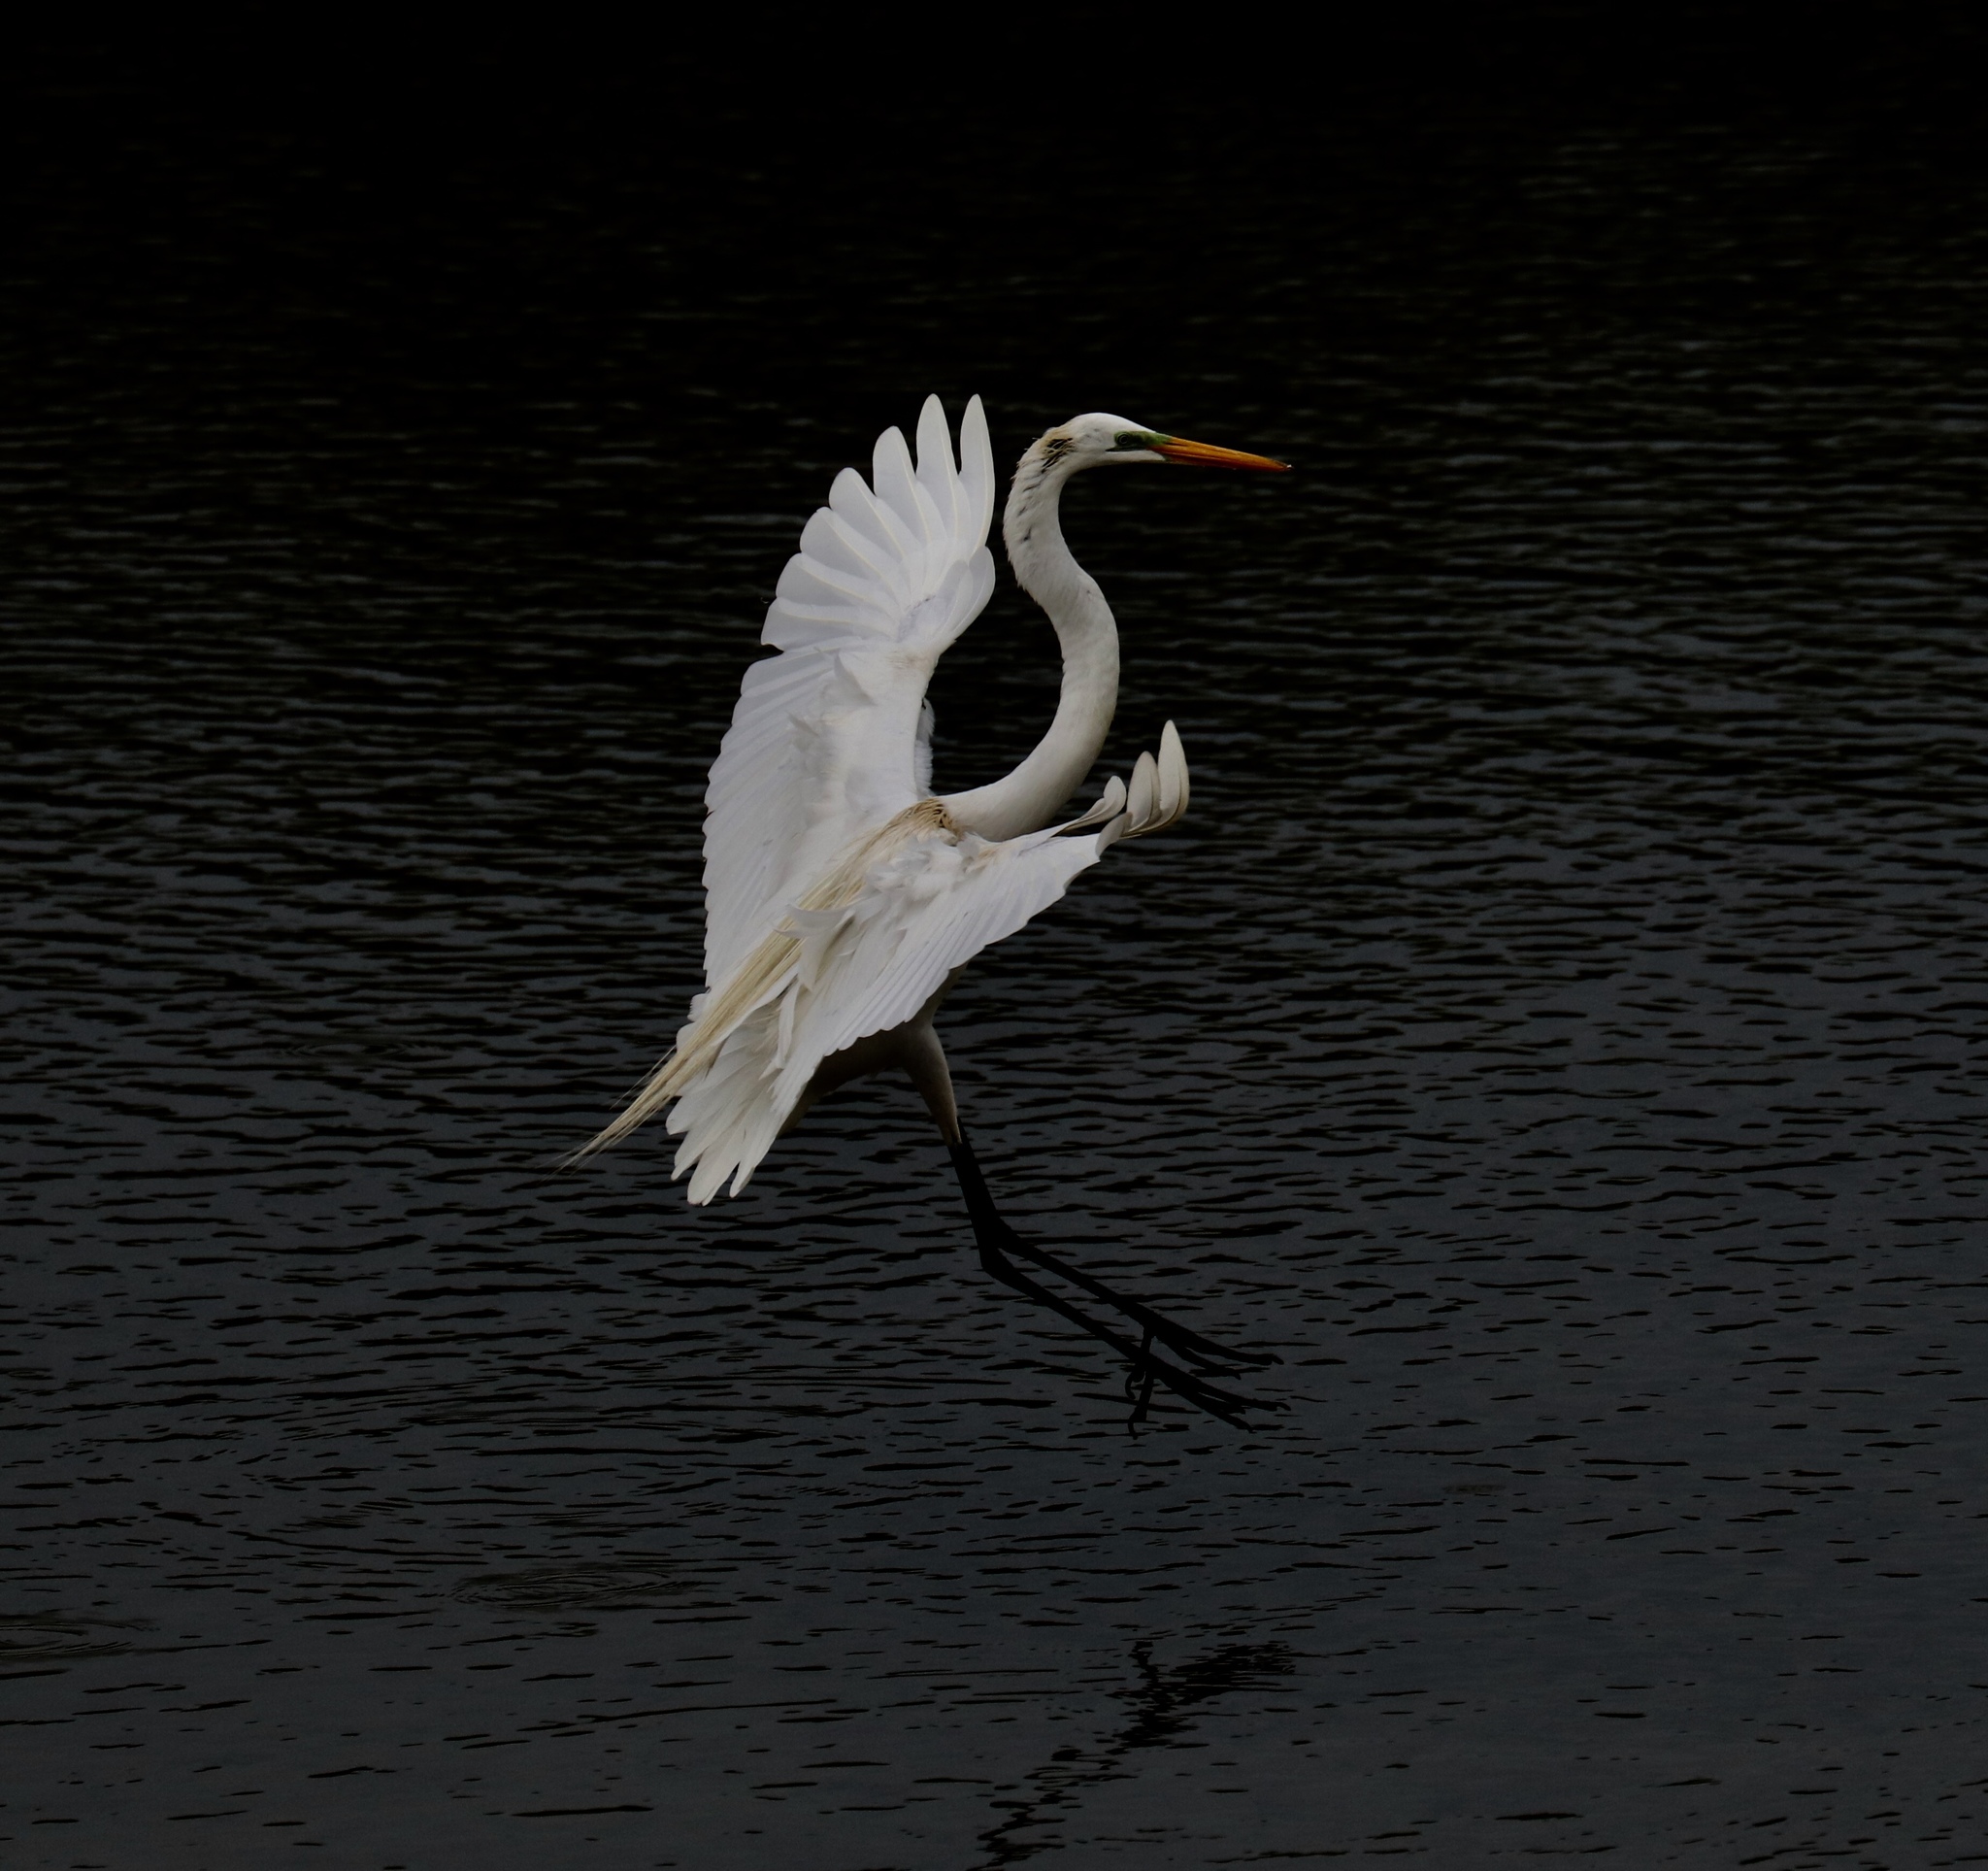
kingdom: Animalia
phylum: Chordata
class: Aves
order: Pelecaniformes
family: Ardeidae
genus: Ardea
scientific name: Ardea alba
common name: Great egret
